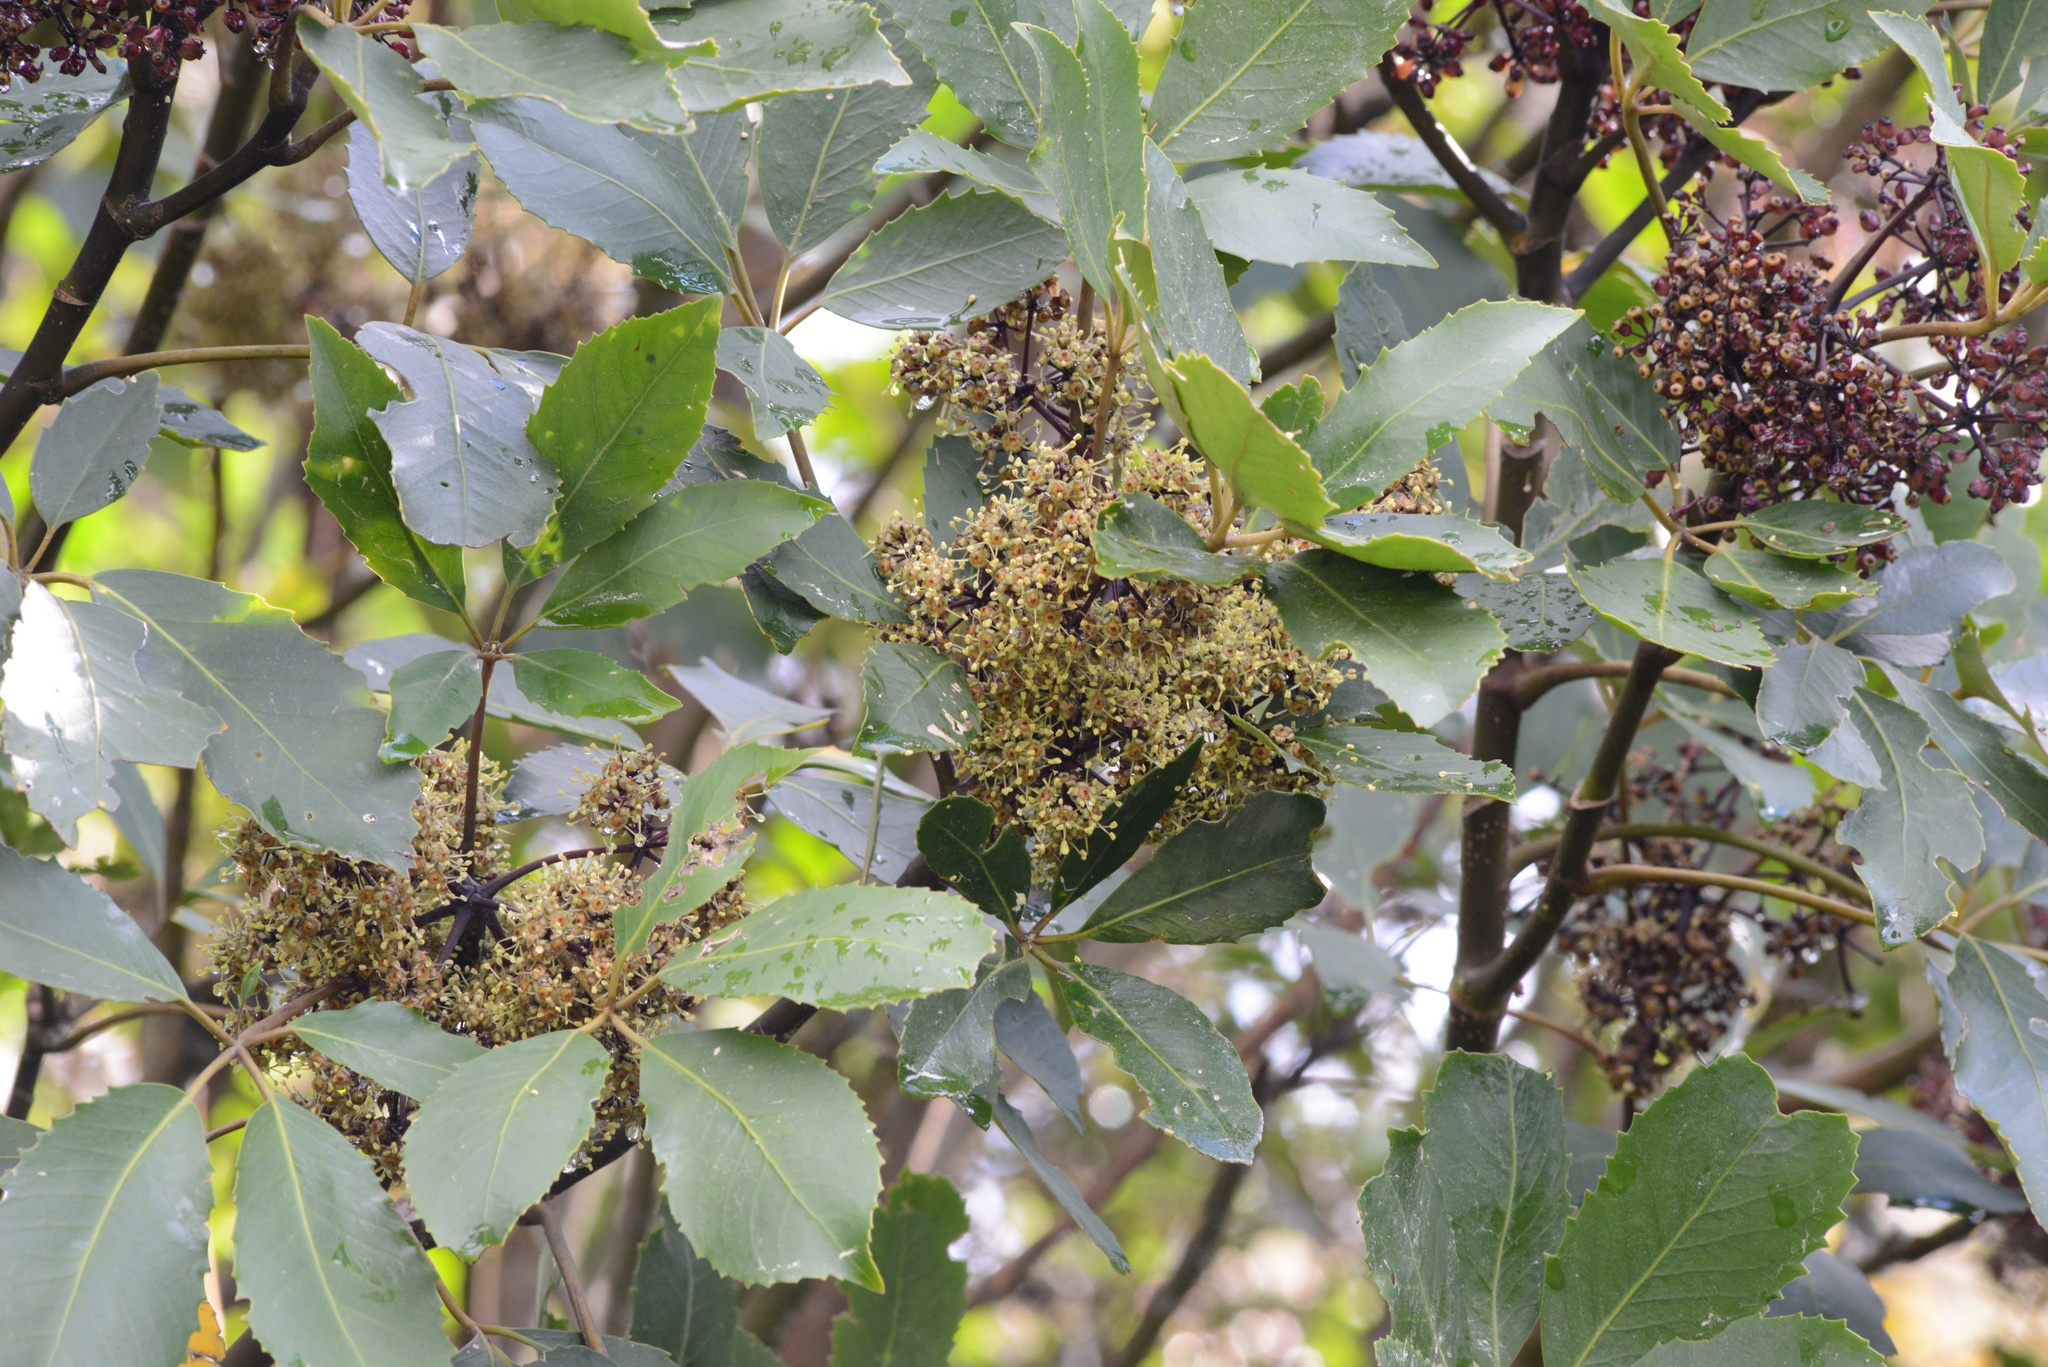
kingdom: Plantae
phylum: Tracheophyta
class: Magnoliopsida
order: Apiales
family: Araliaceae
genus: Neopanax
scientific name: Neopanax arboreus
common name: Five-fingers
